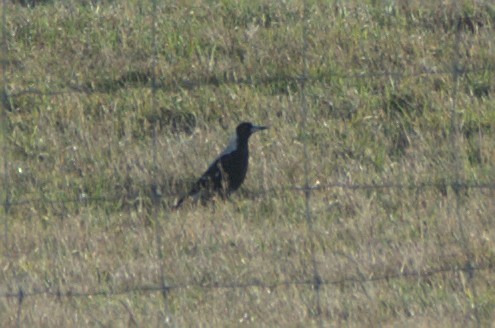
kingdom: Animalia
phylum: Chordata
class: Aves
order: Passeriformes
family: Cracticidae
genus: Gymnorhina
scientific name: Gymnorhina tibicen
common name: Australian magpie
